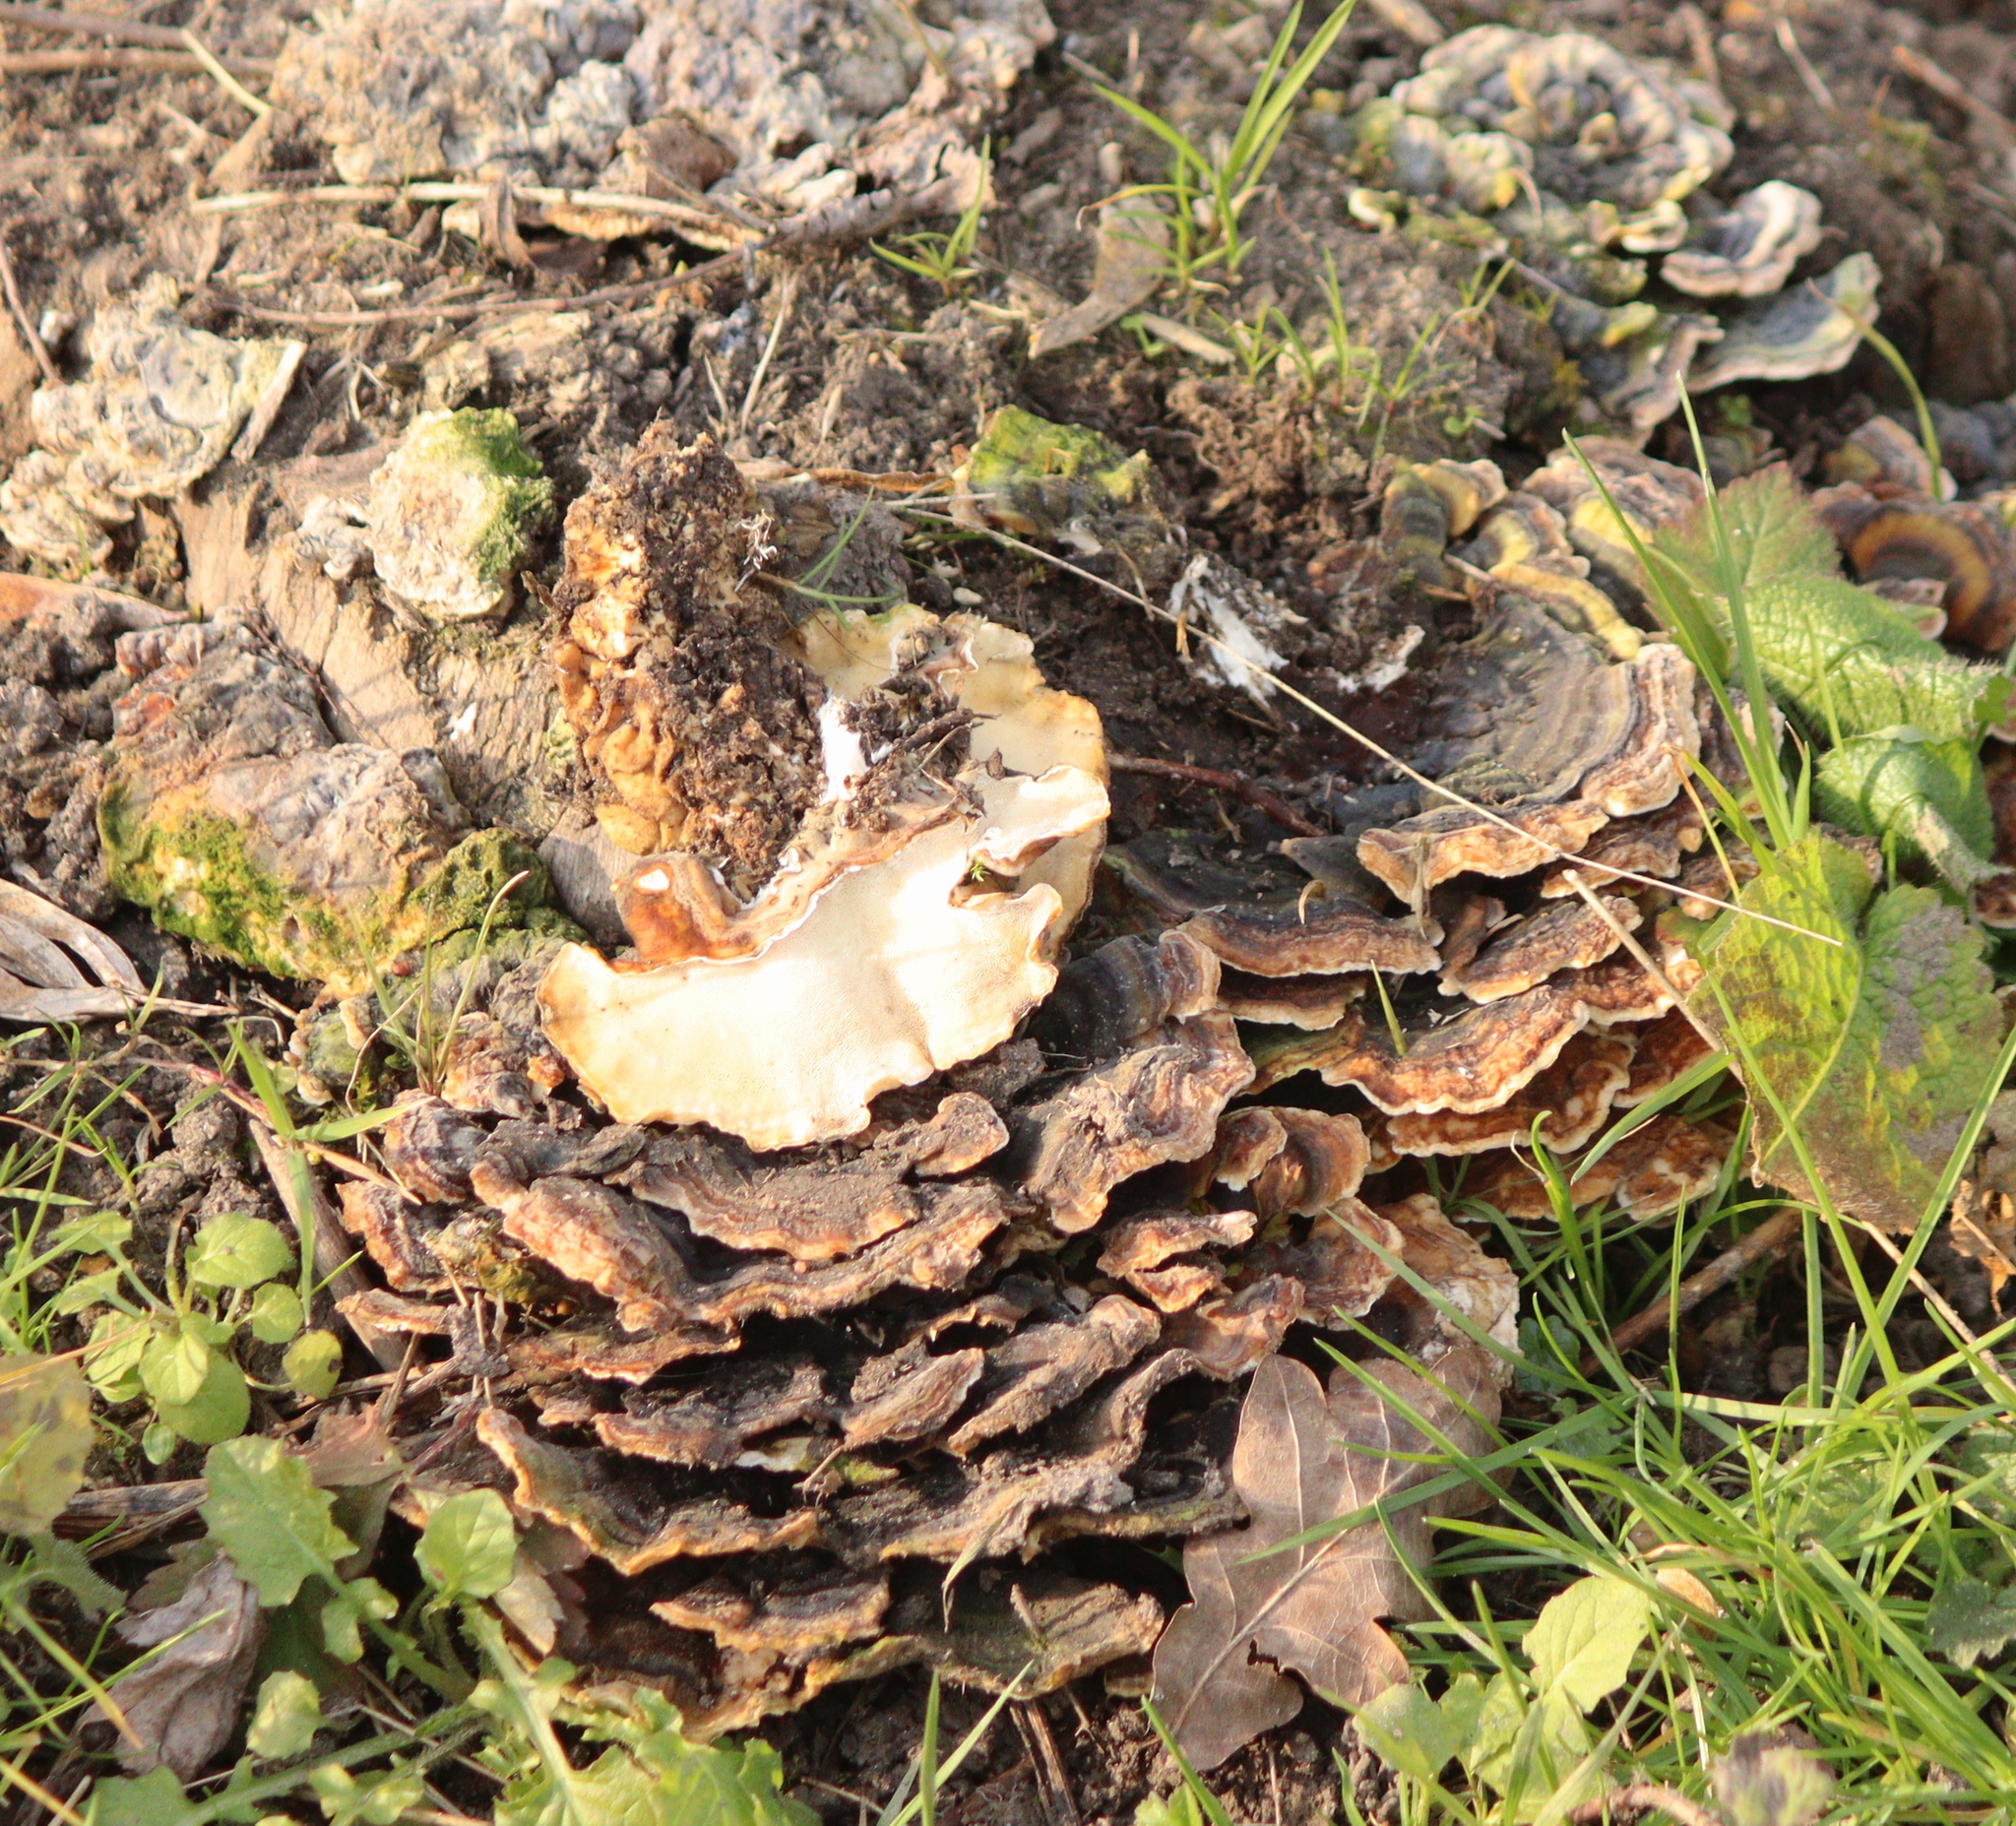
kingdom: Fungi
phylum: Basidiomycota
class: Agaricomycetes
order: Polyporales
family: Polyporaceae
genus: Trametes
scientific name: Trametes versicolor
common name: Turkeytail
